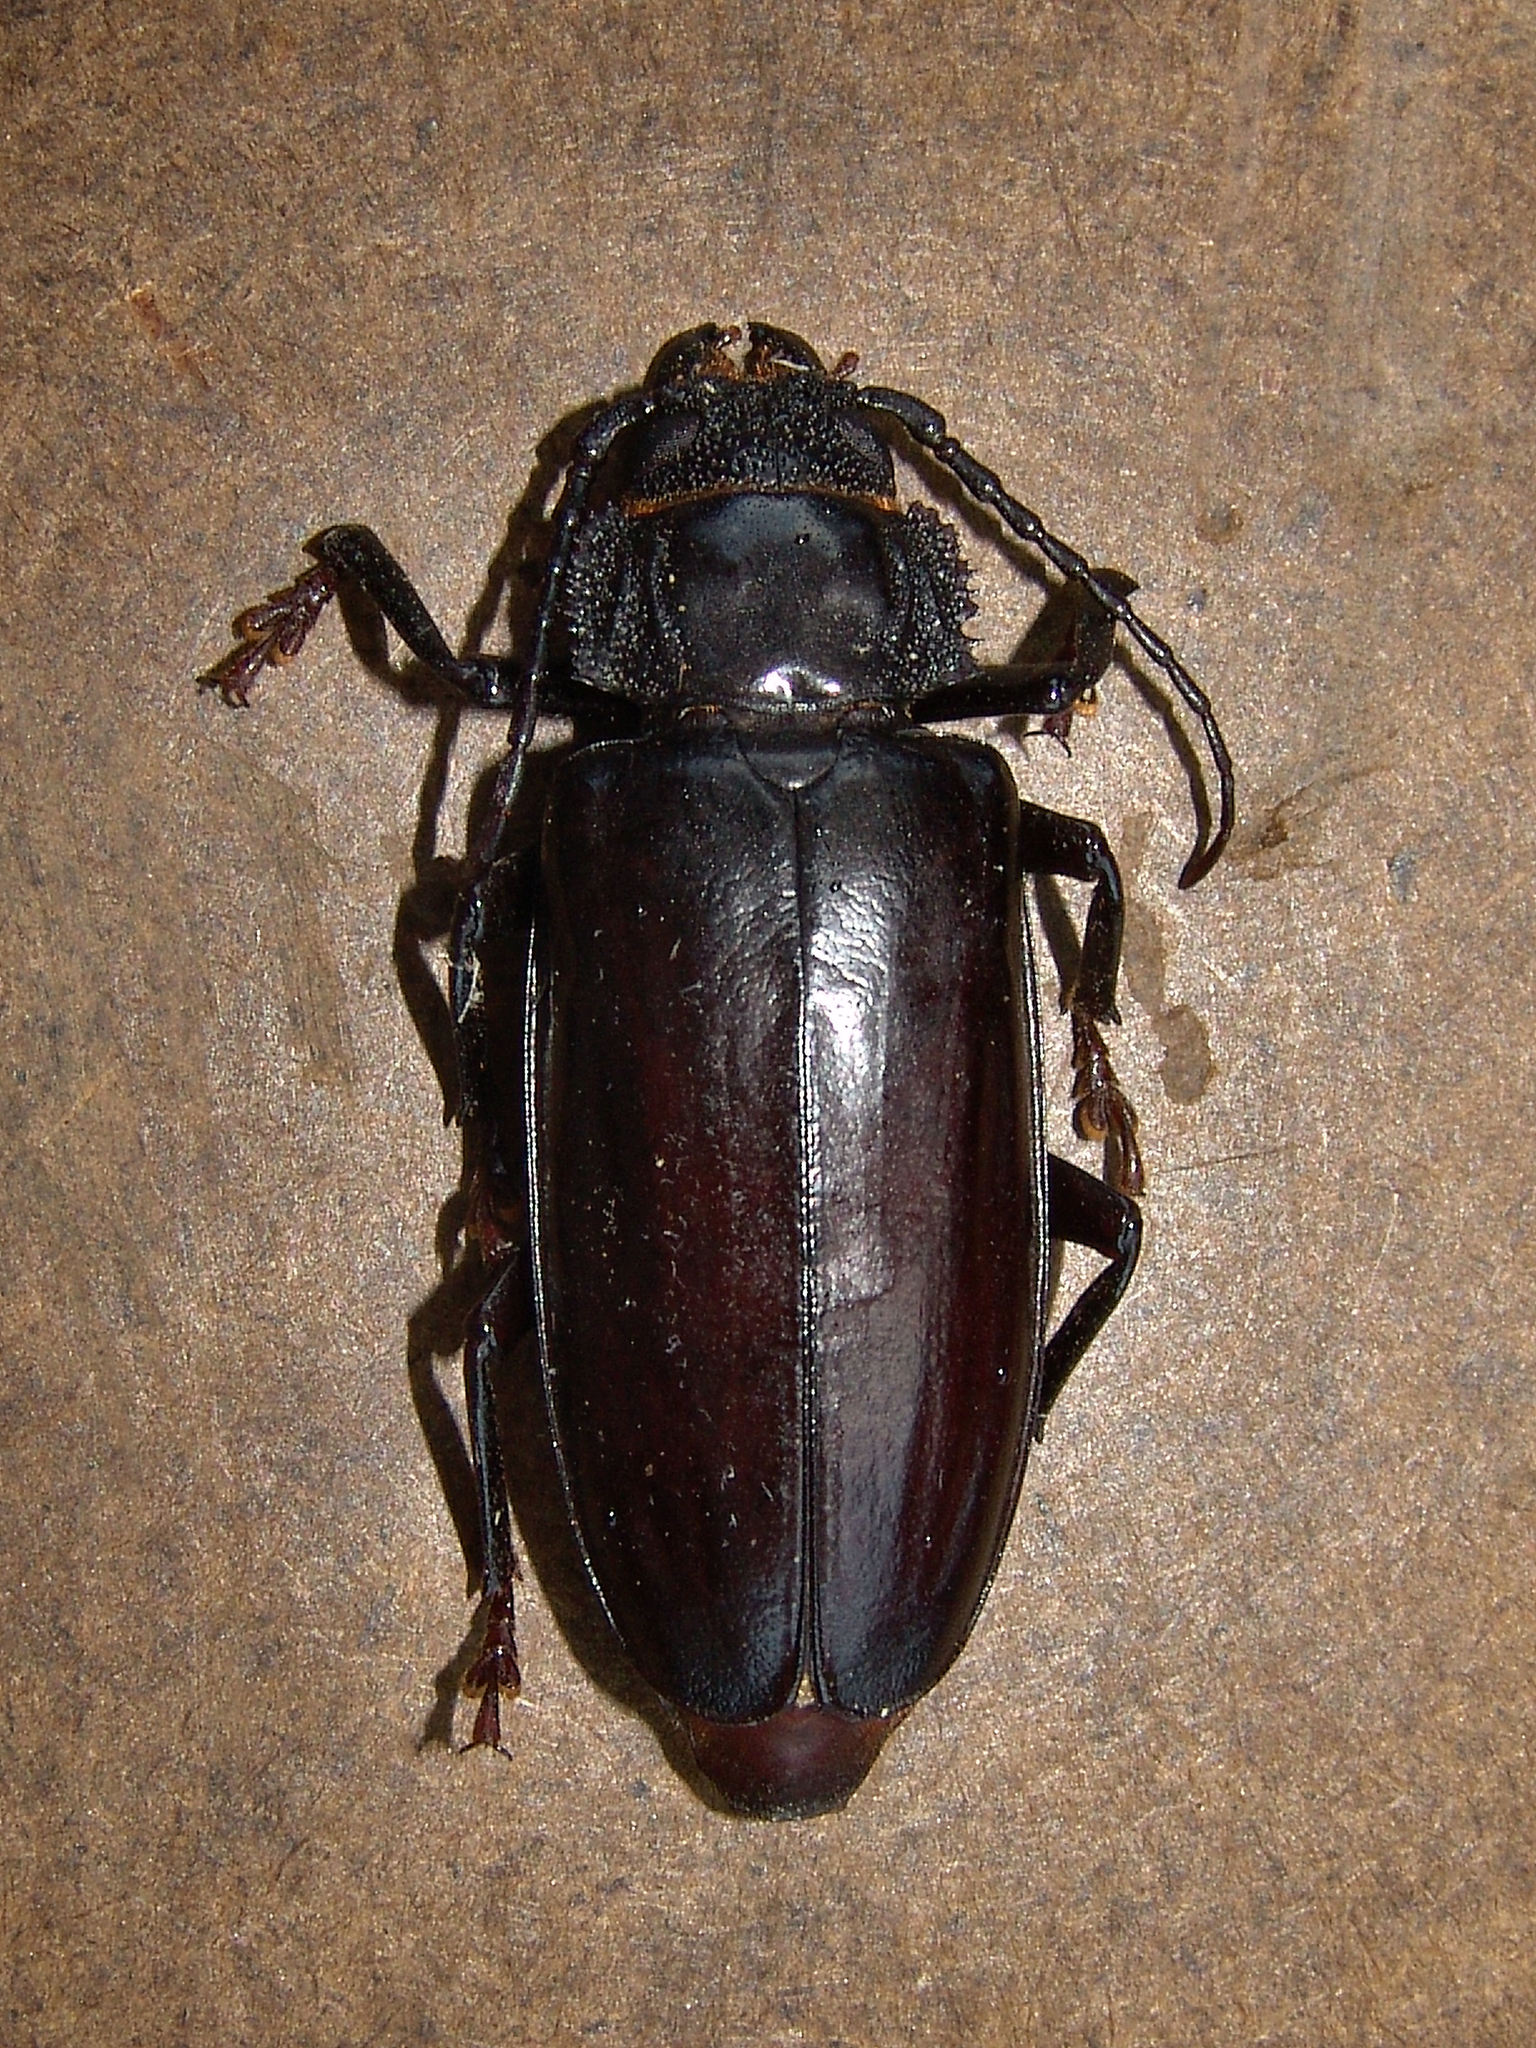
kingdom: Animalia
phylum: Arthropoda
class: Insecta
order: Coleoptera
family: Cerambycidae
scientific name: Cerambycidae
